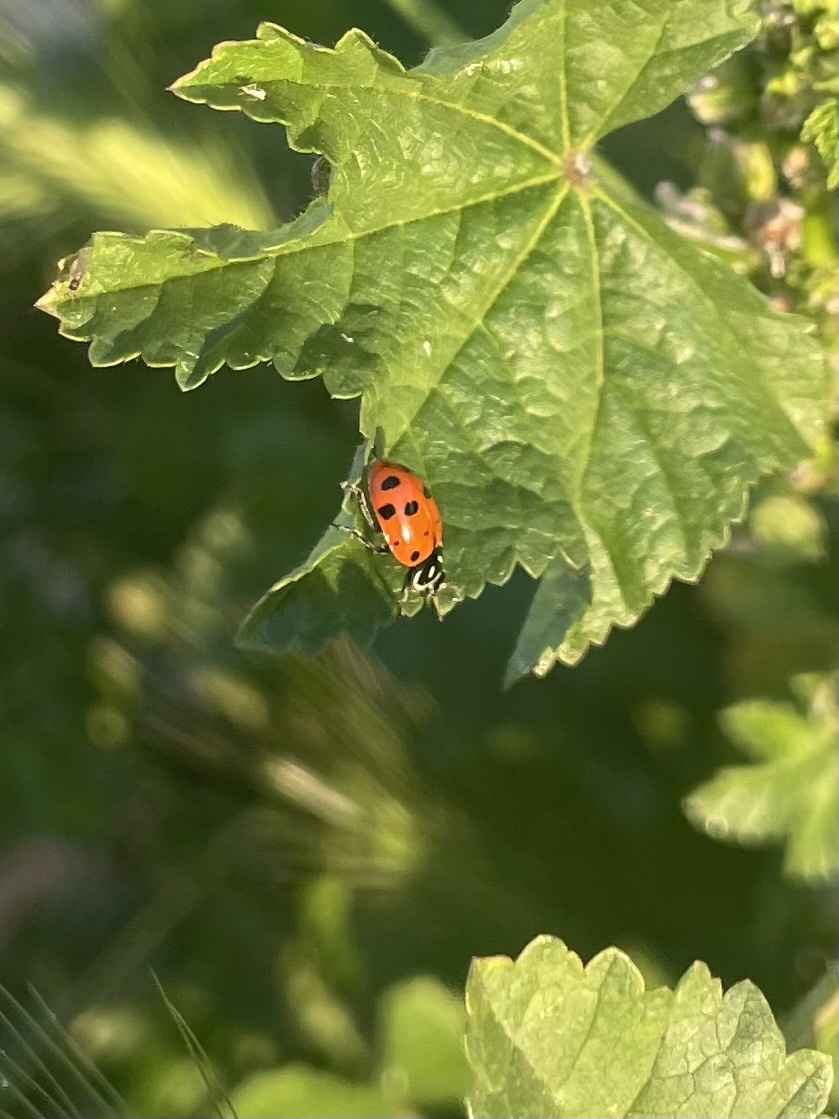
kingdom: Animalia
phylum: Arthropoda
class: Insecta
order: Coleoptera
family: Coccinellidae
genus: Hippodamia
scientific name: Hippodamia convergens
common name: Convergent lady beetle
